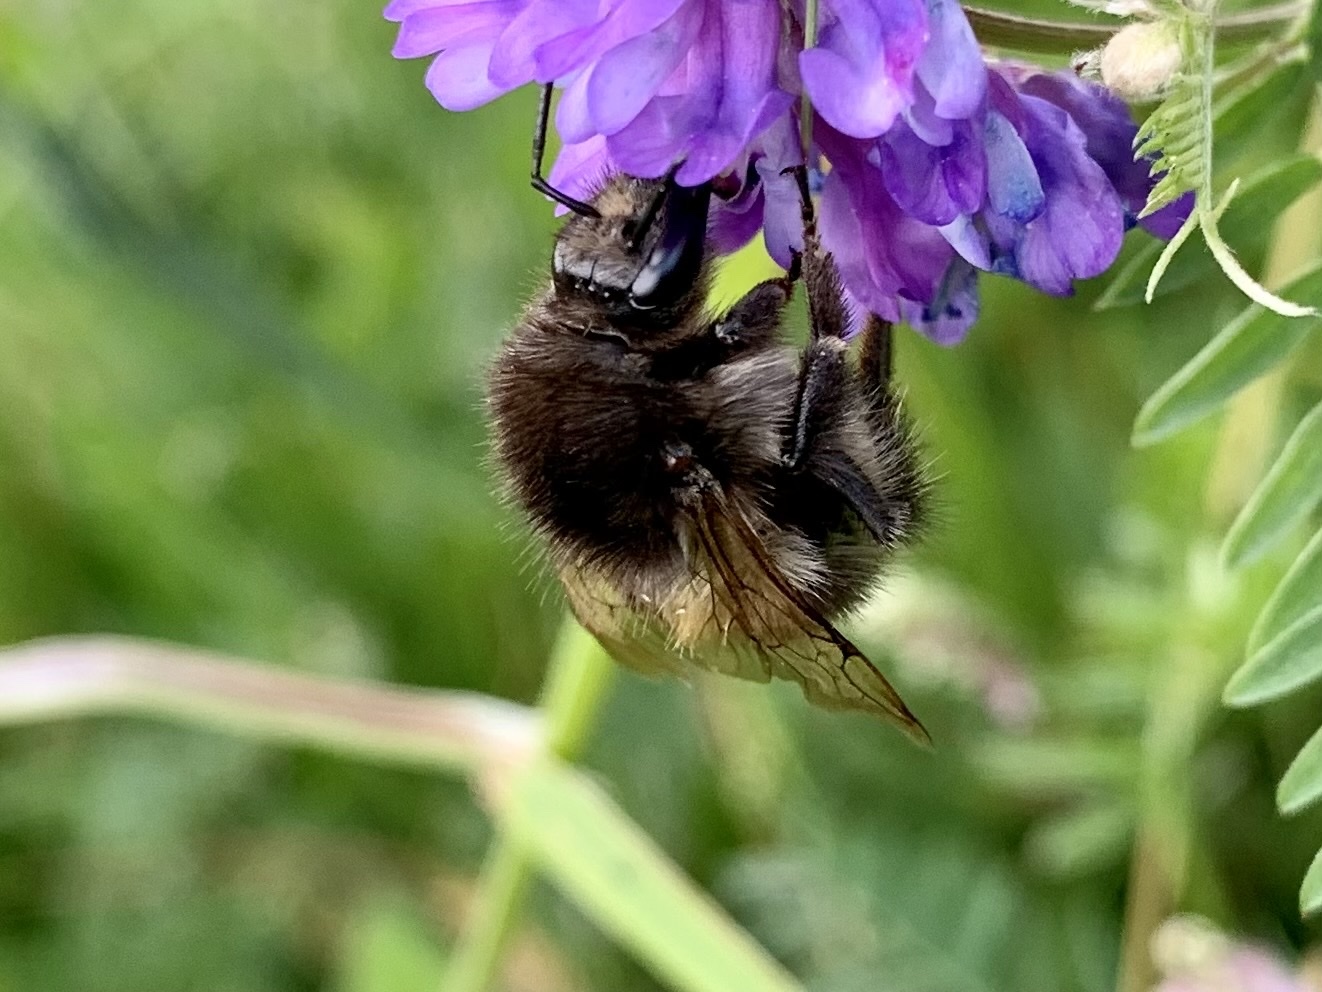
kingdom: Animalia
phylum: Arthropoda
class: Insecta
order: Hymenoptera
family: Apidae
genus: Bombus
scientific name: Bombus pascuorum
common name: Common carder bee
